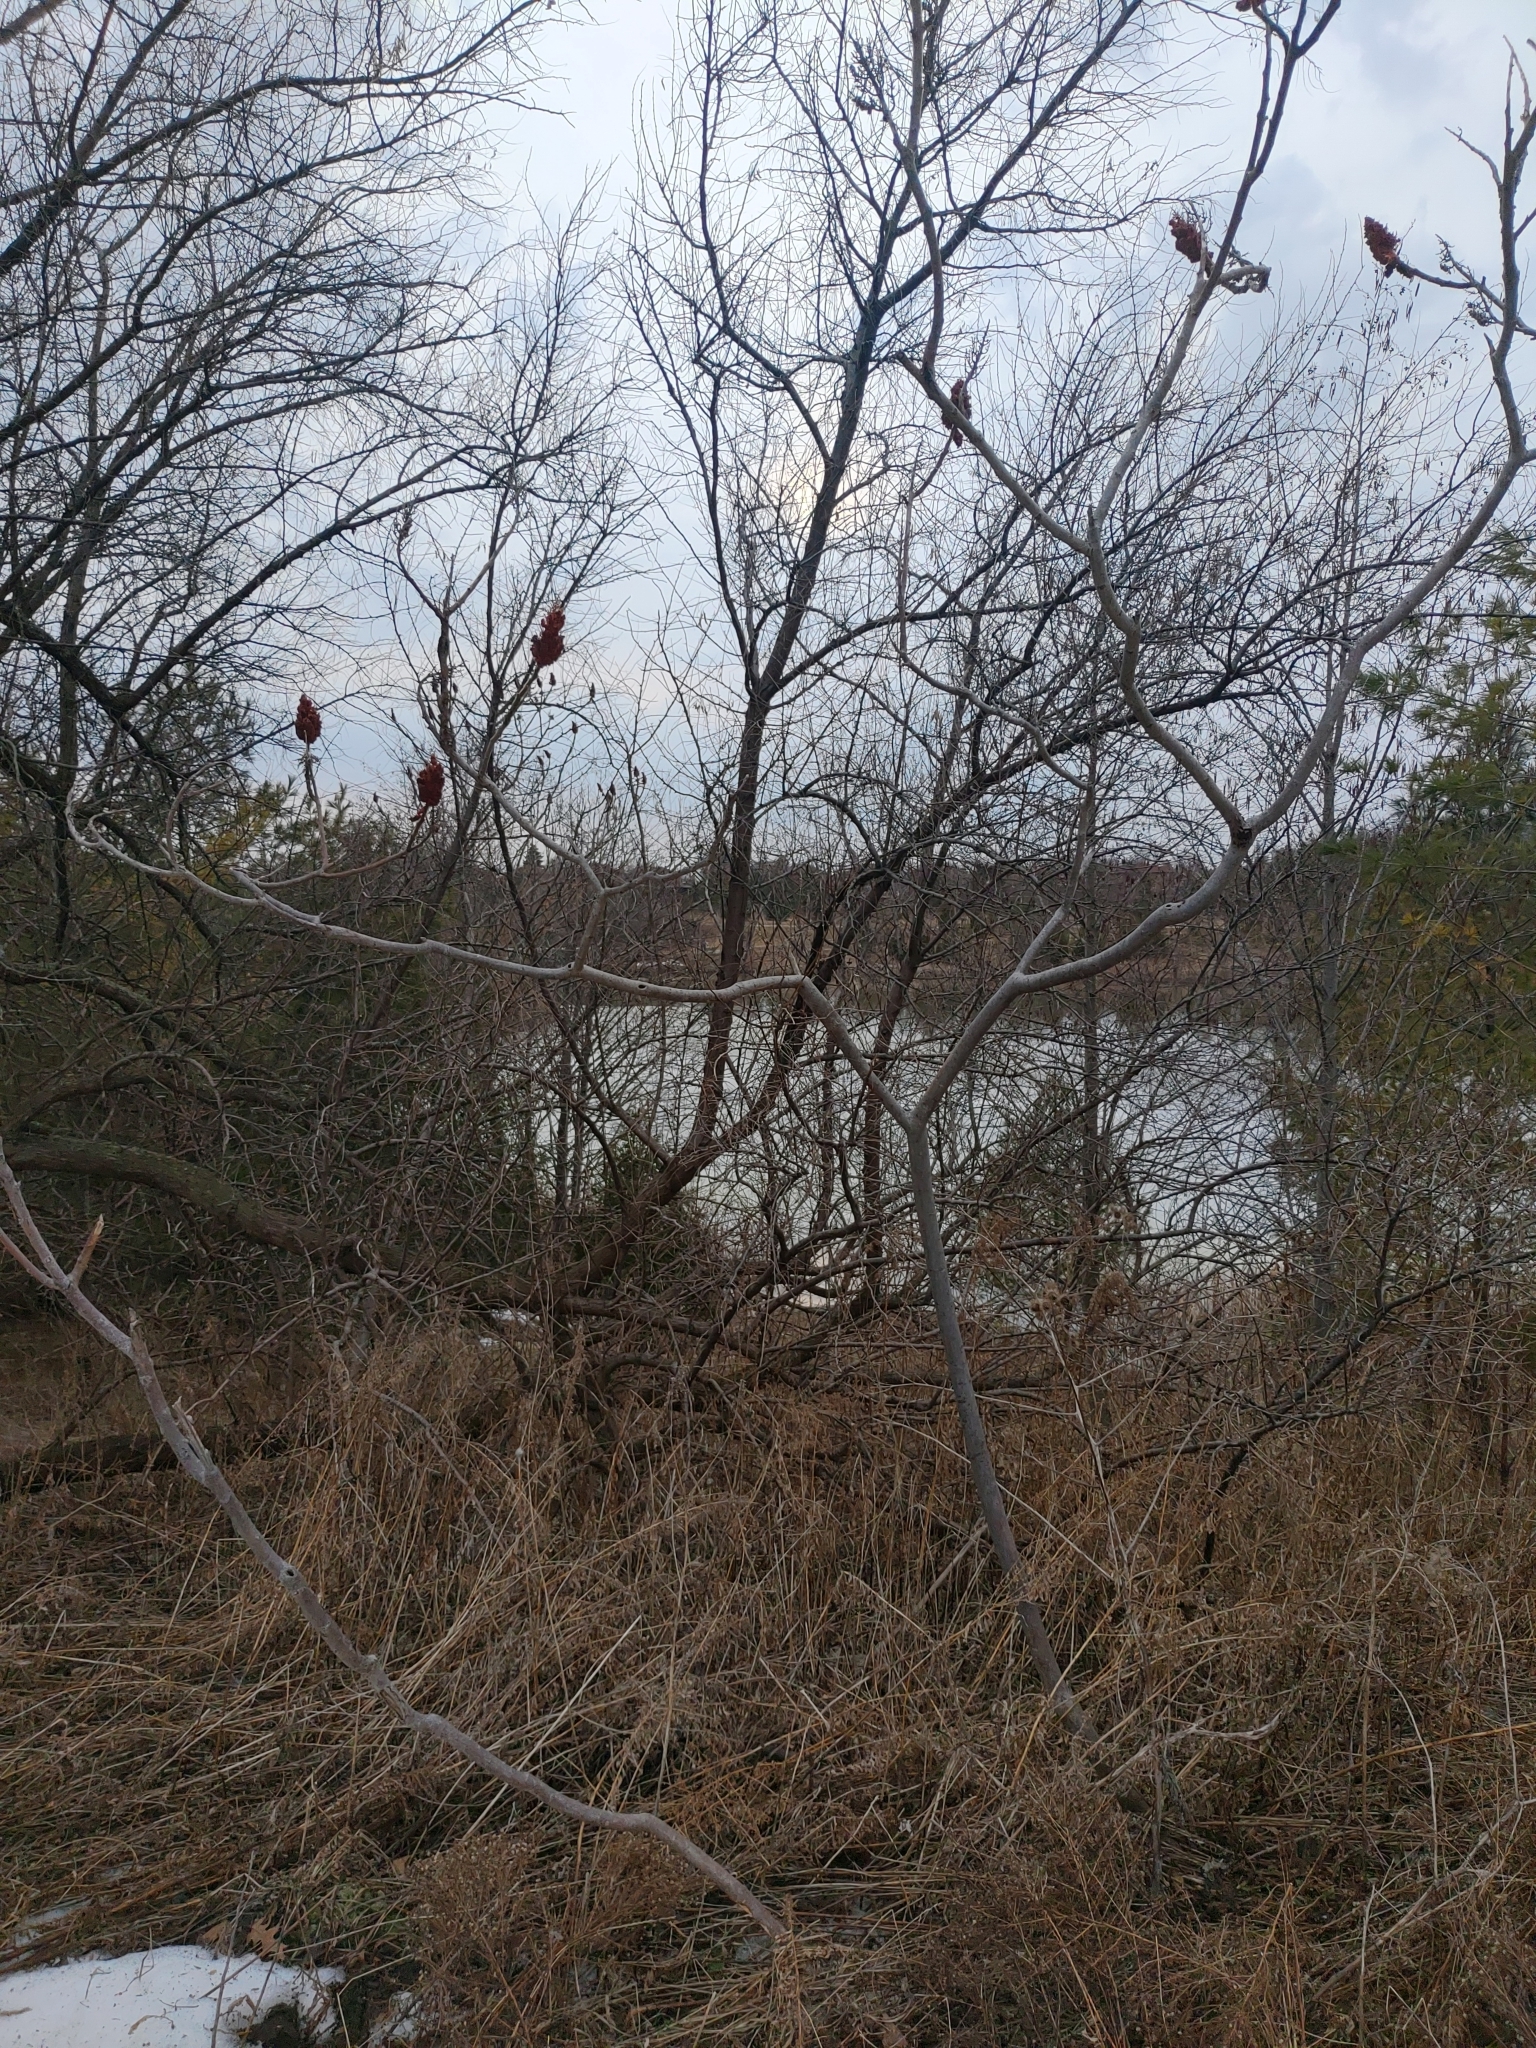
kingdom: Plantae
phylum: Tracheophyta
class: Magnoliopsida
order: Sapindales
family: Anacardiaceae
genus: Rhus
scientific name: Rhus typhina
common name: Staghorn sumac
